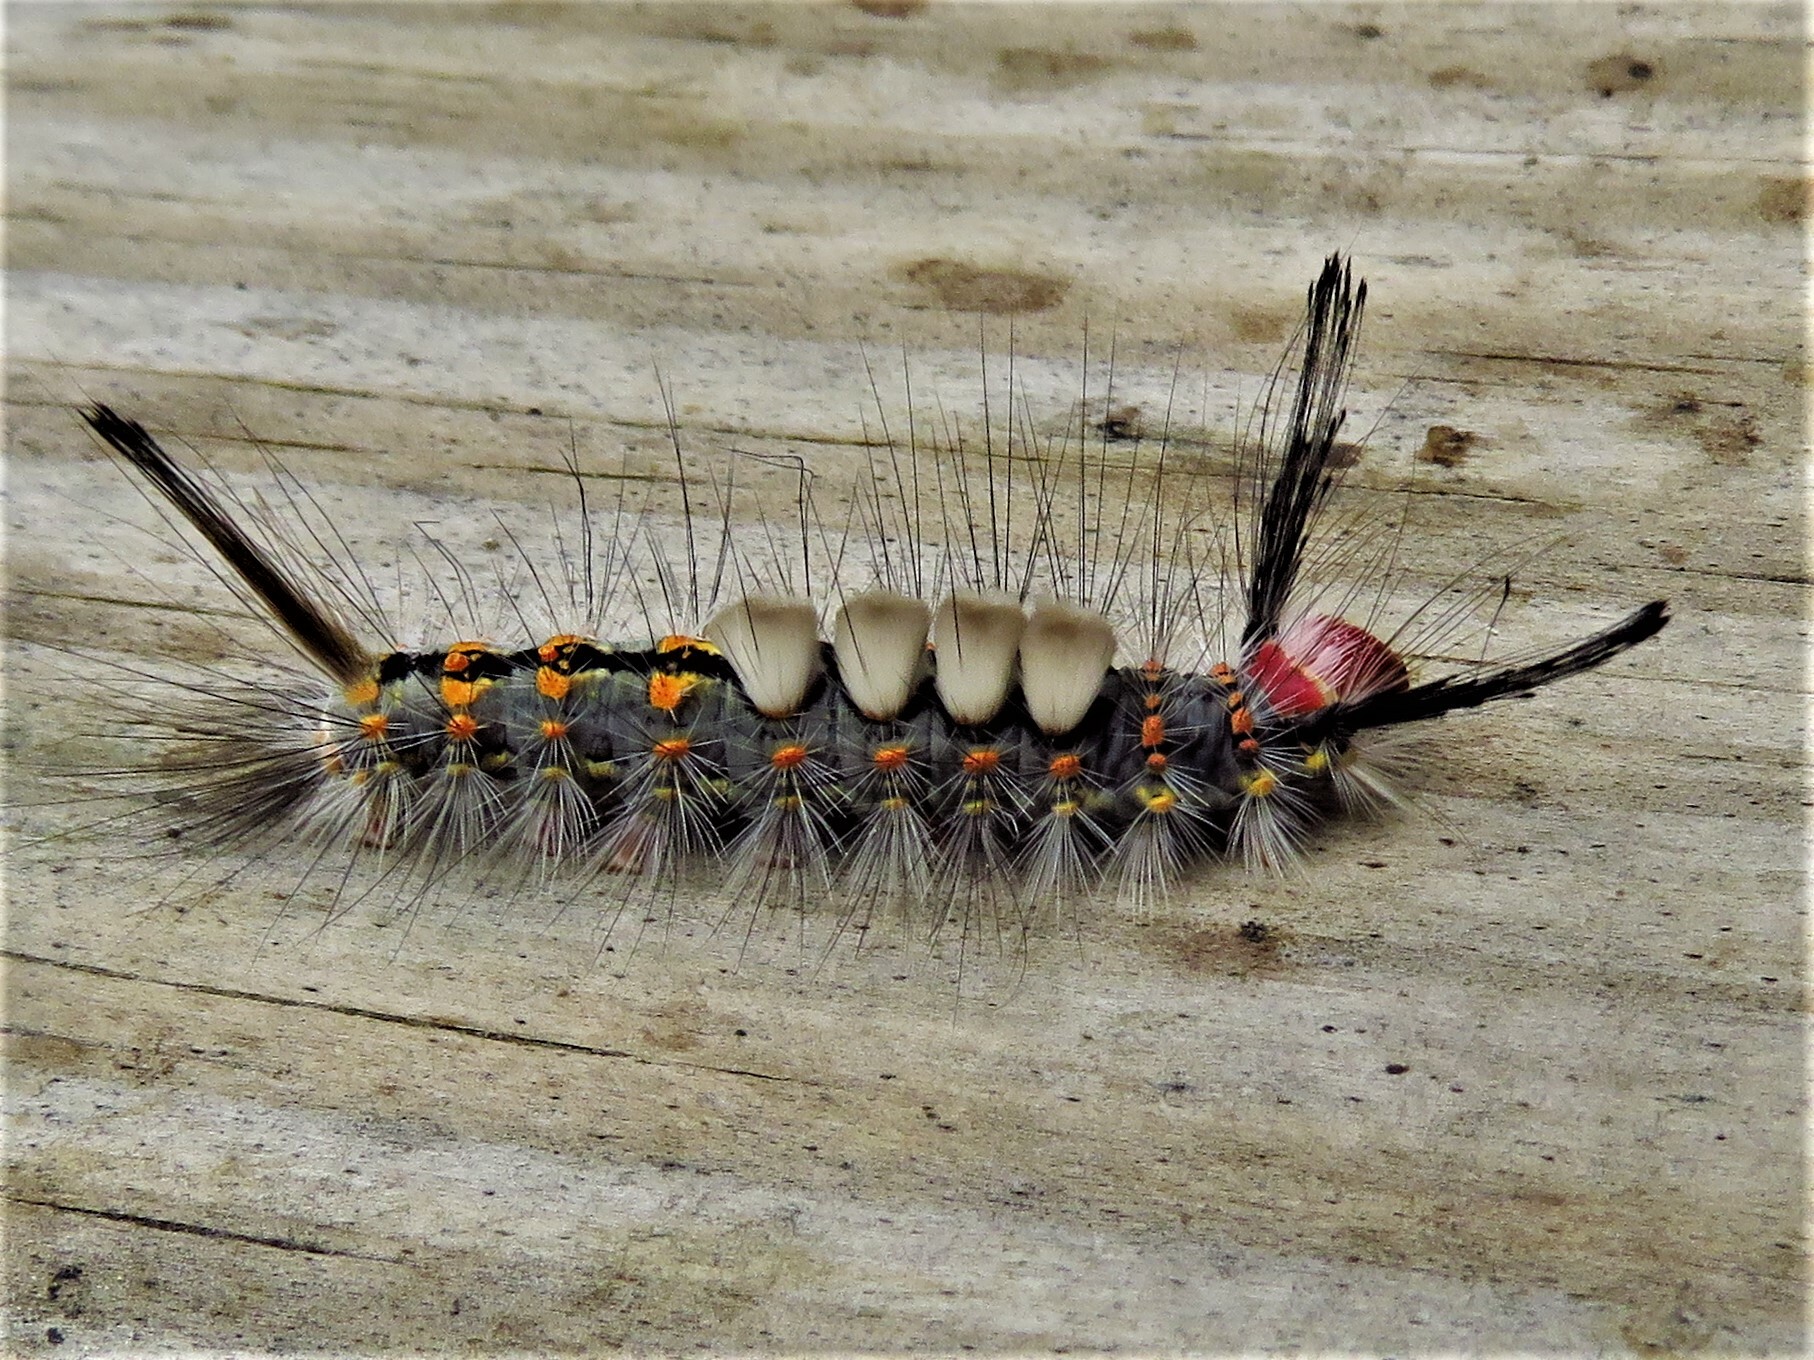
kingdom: Animalia
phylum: Arthropoda
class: Insecta
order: Lepidoptera
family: Erebidae
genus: Orgyia
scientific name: Orgyia detrita
